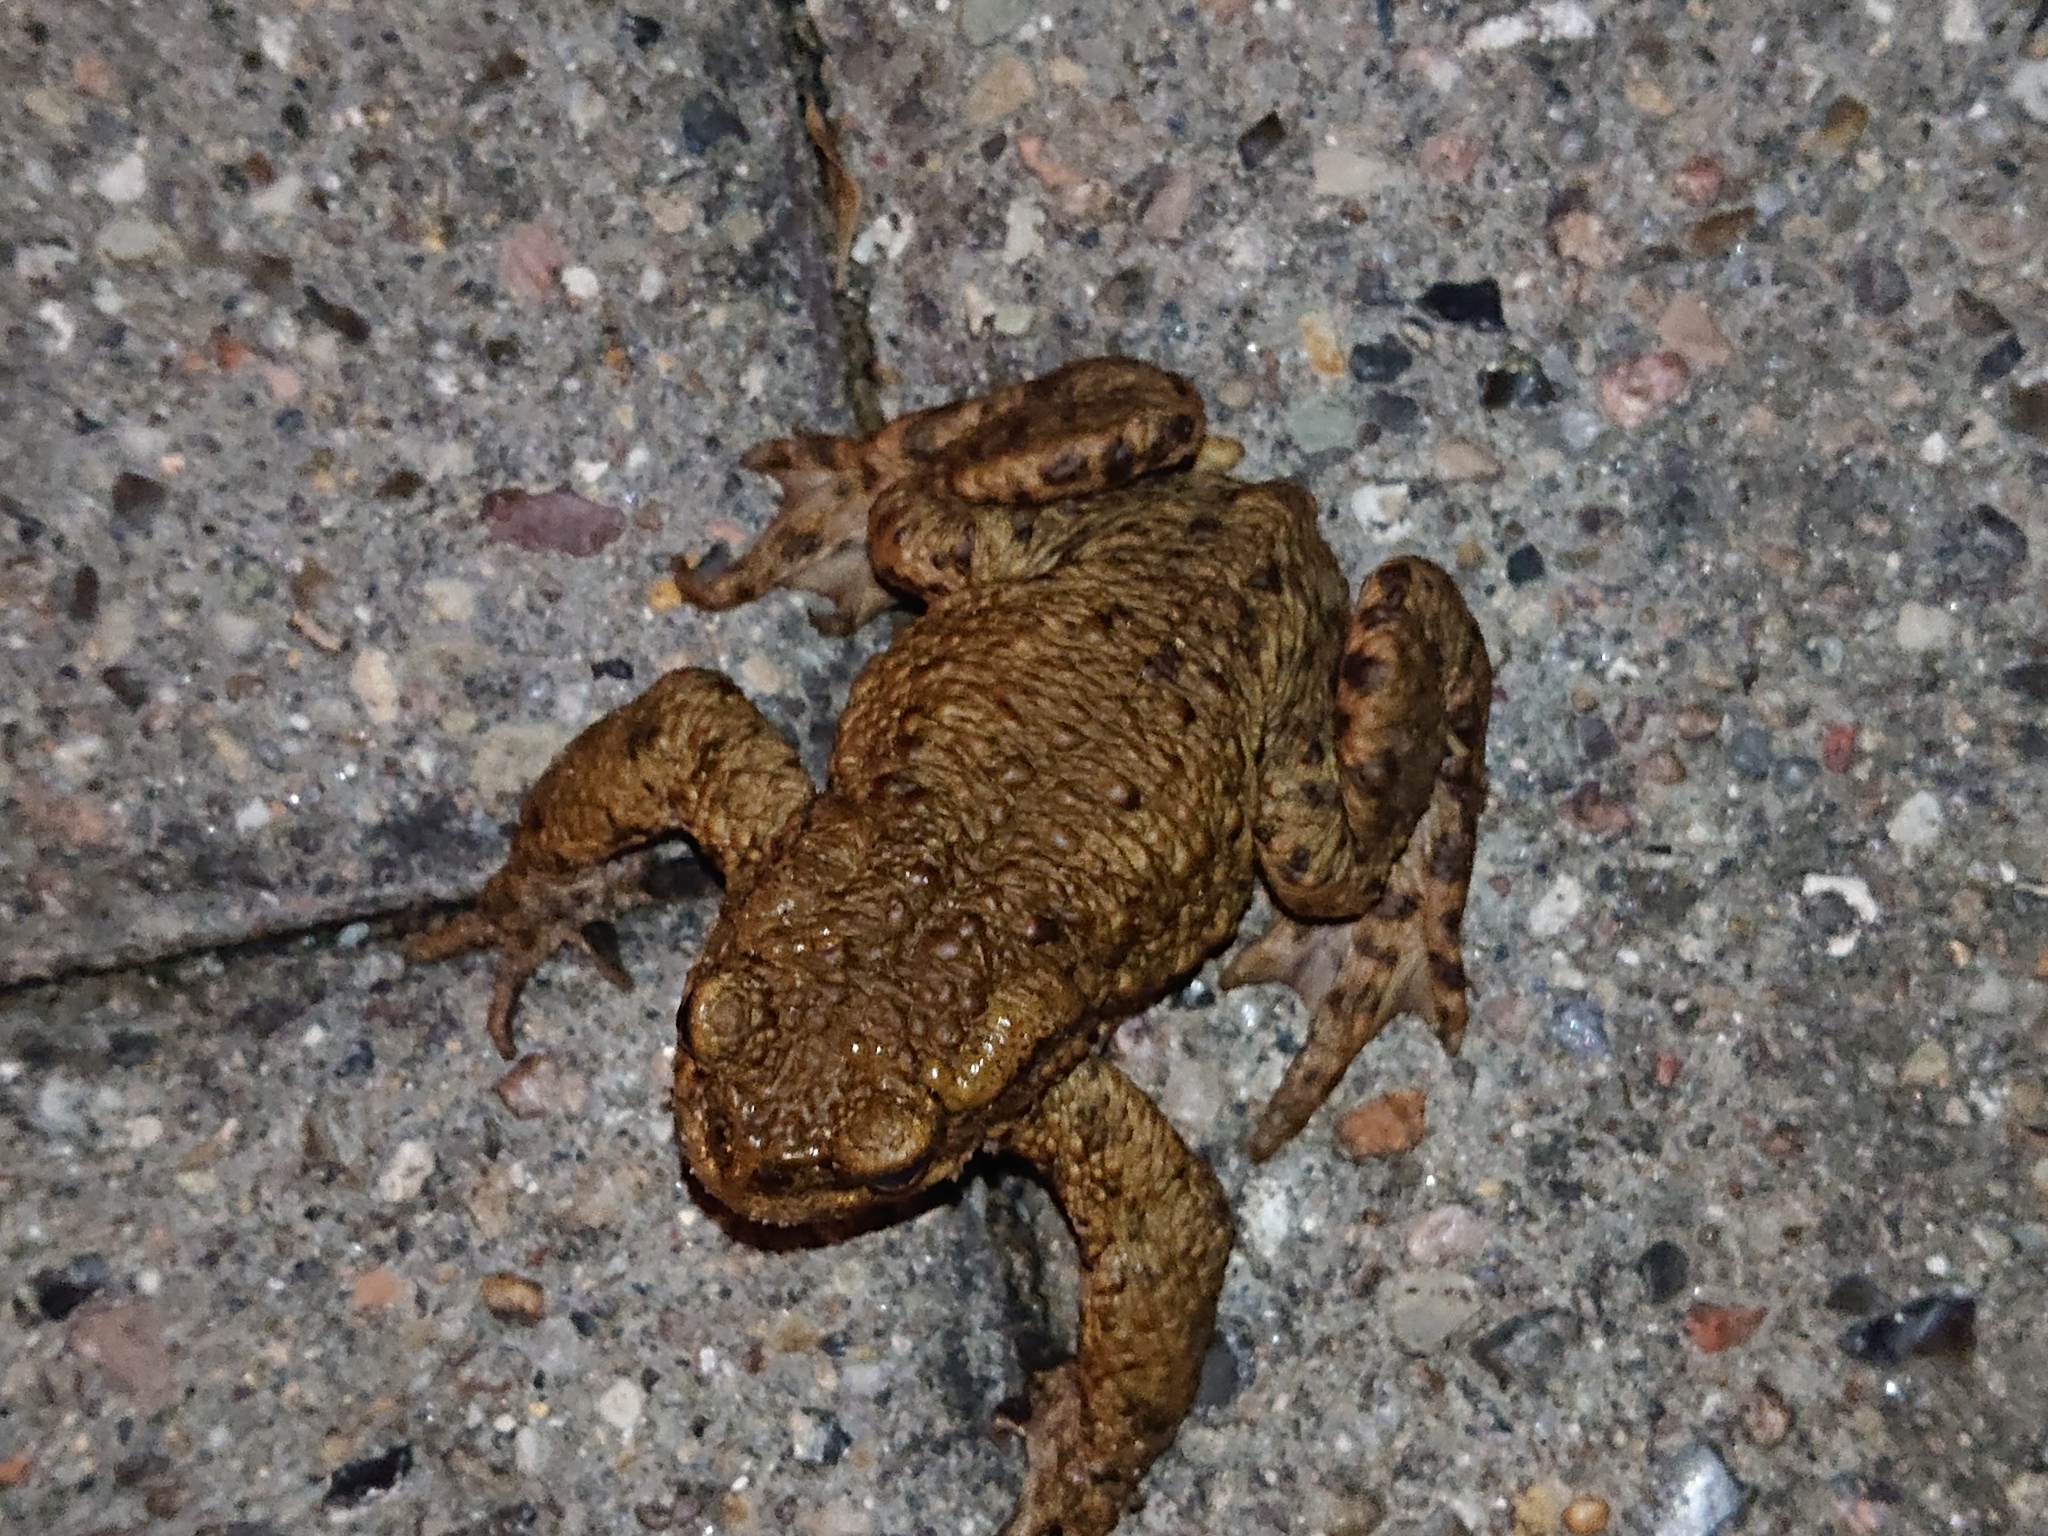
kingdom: Animalia
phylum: Chordata
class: Amphibia
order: Anura
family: Bufonidae
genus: Bufo
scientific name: Bufo bufo
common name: Common toad
